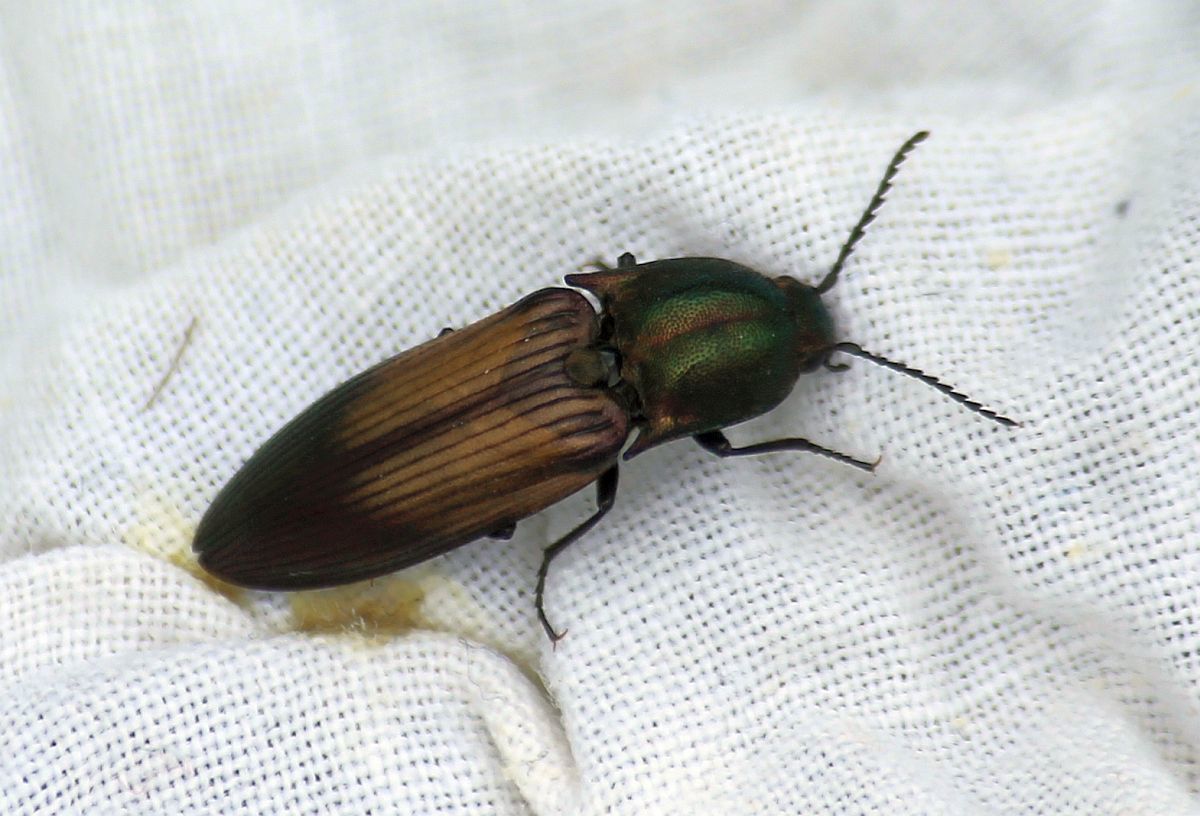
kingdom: Animalia
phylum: Arthropoda
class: Insecta
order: Coleoptera
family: Elateridae
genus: Ctenicera
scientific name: Ctenicera cuprea
